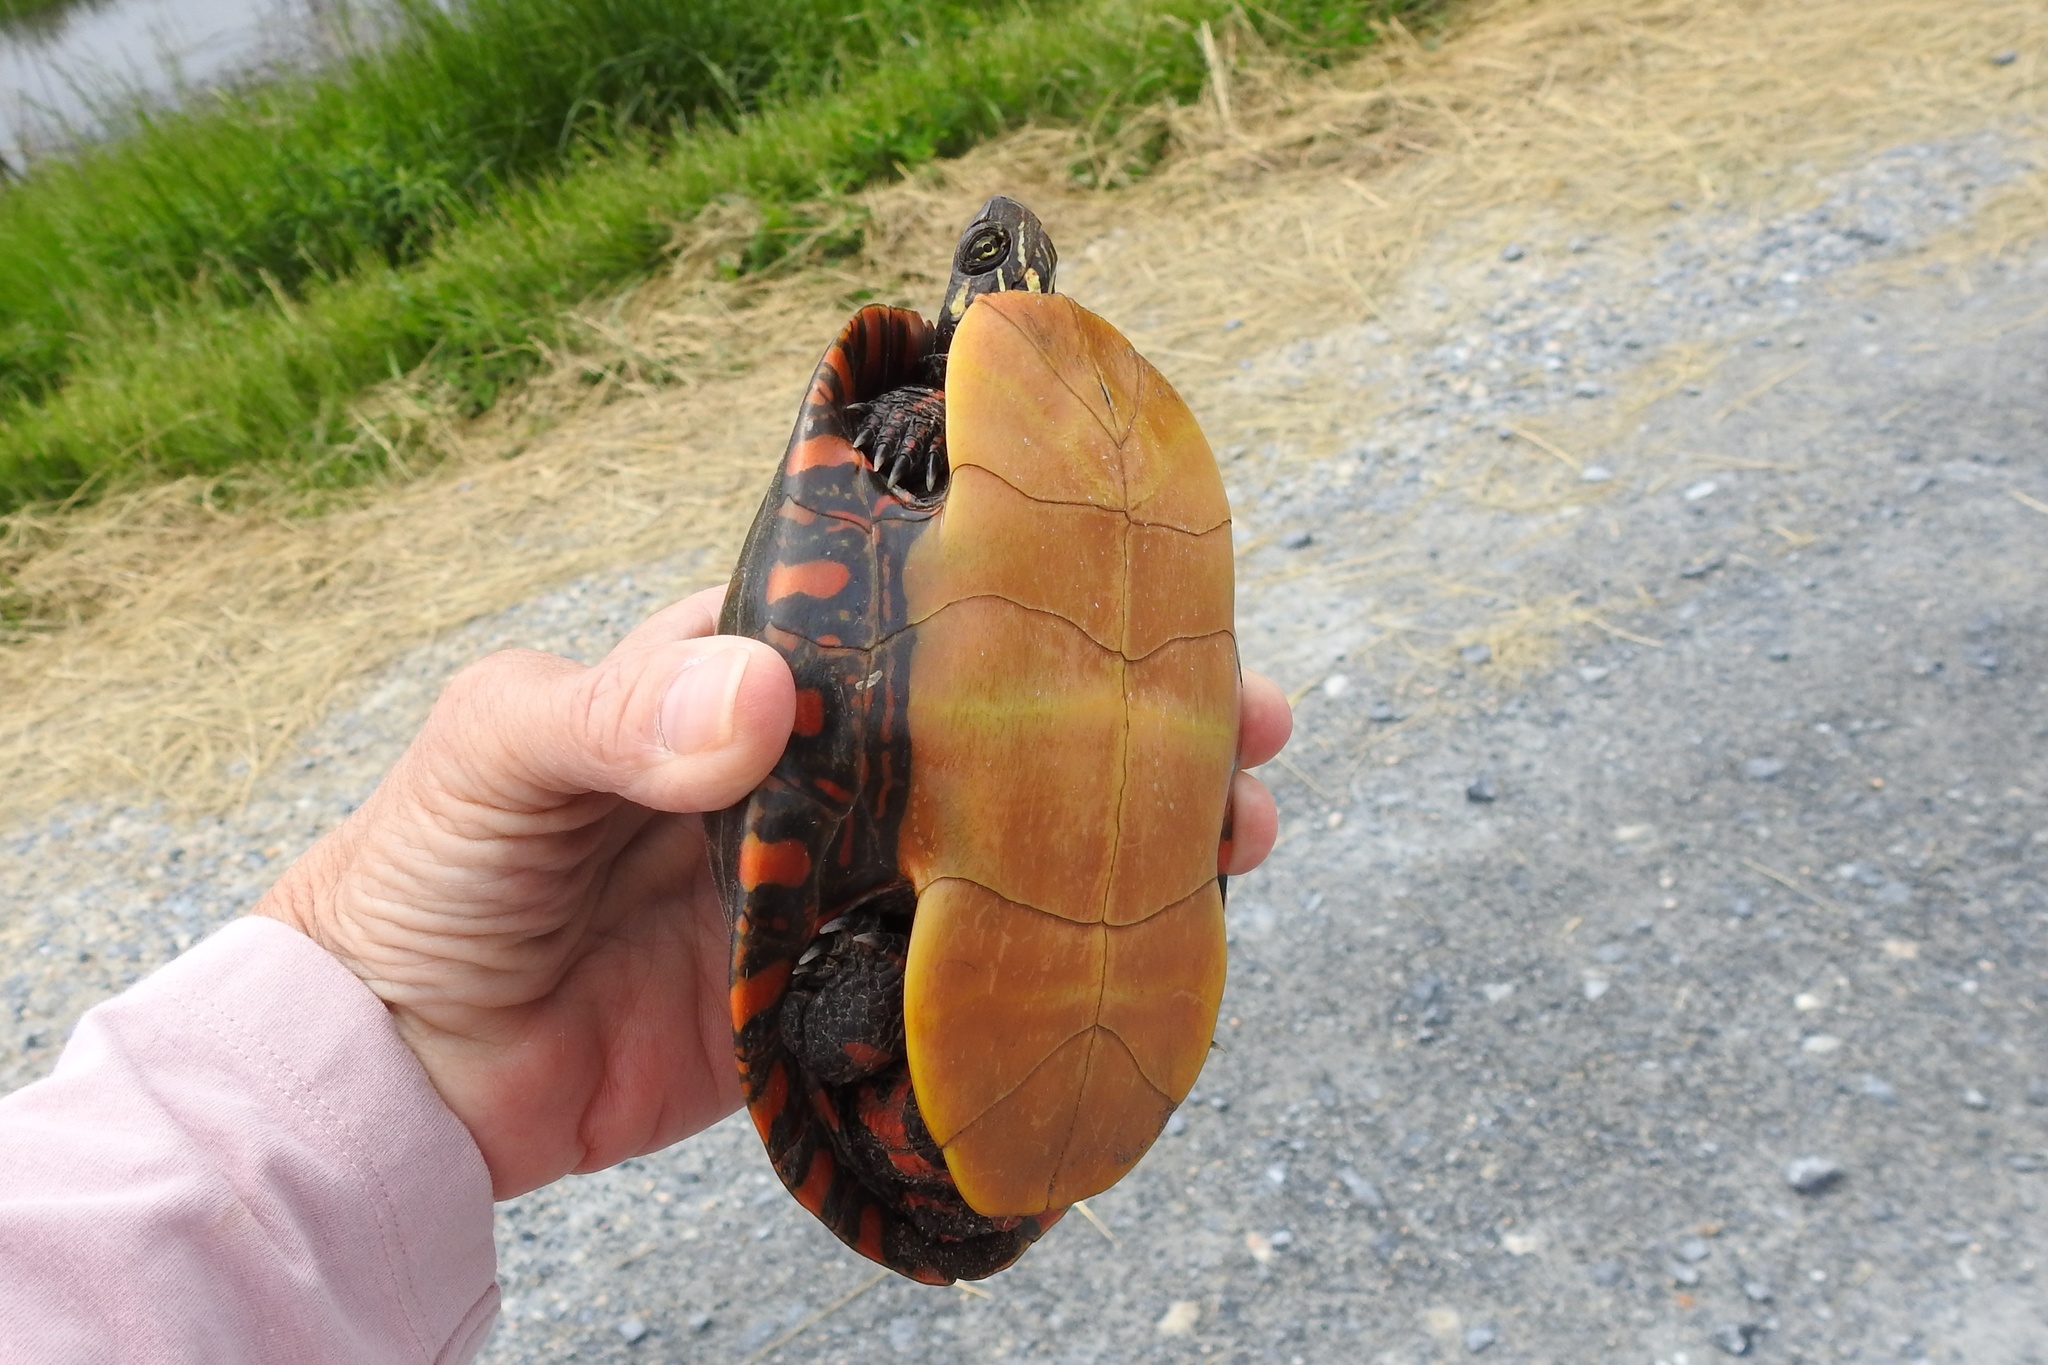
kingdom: Animalia
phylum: Chordata
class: Testudines
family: Emydidae
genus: Chrysemys
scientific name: Chrysemys picta
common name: Painted turtle
